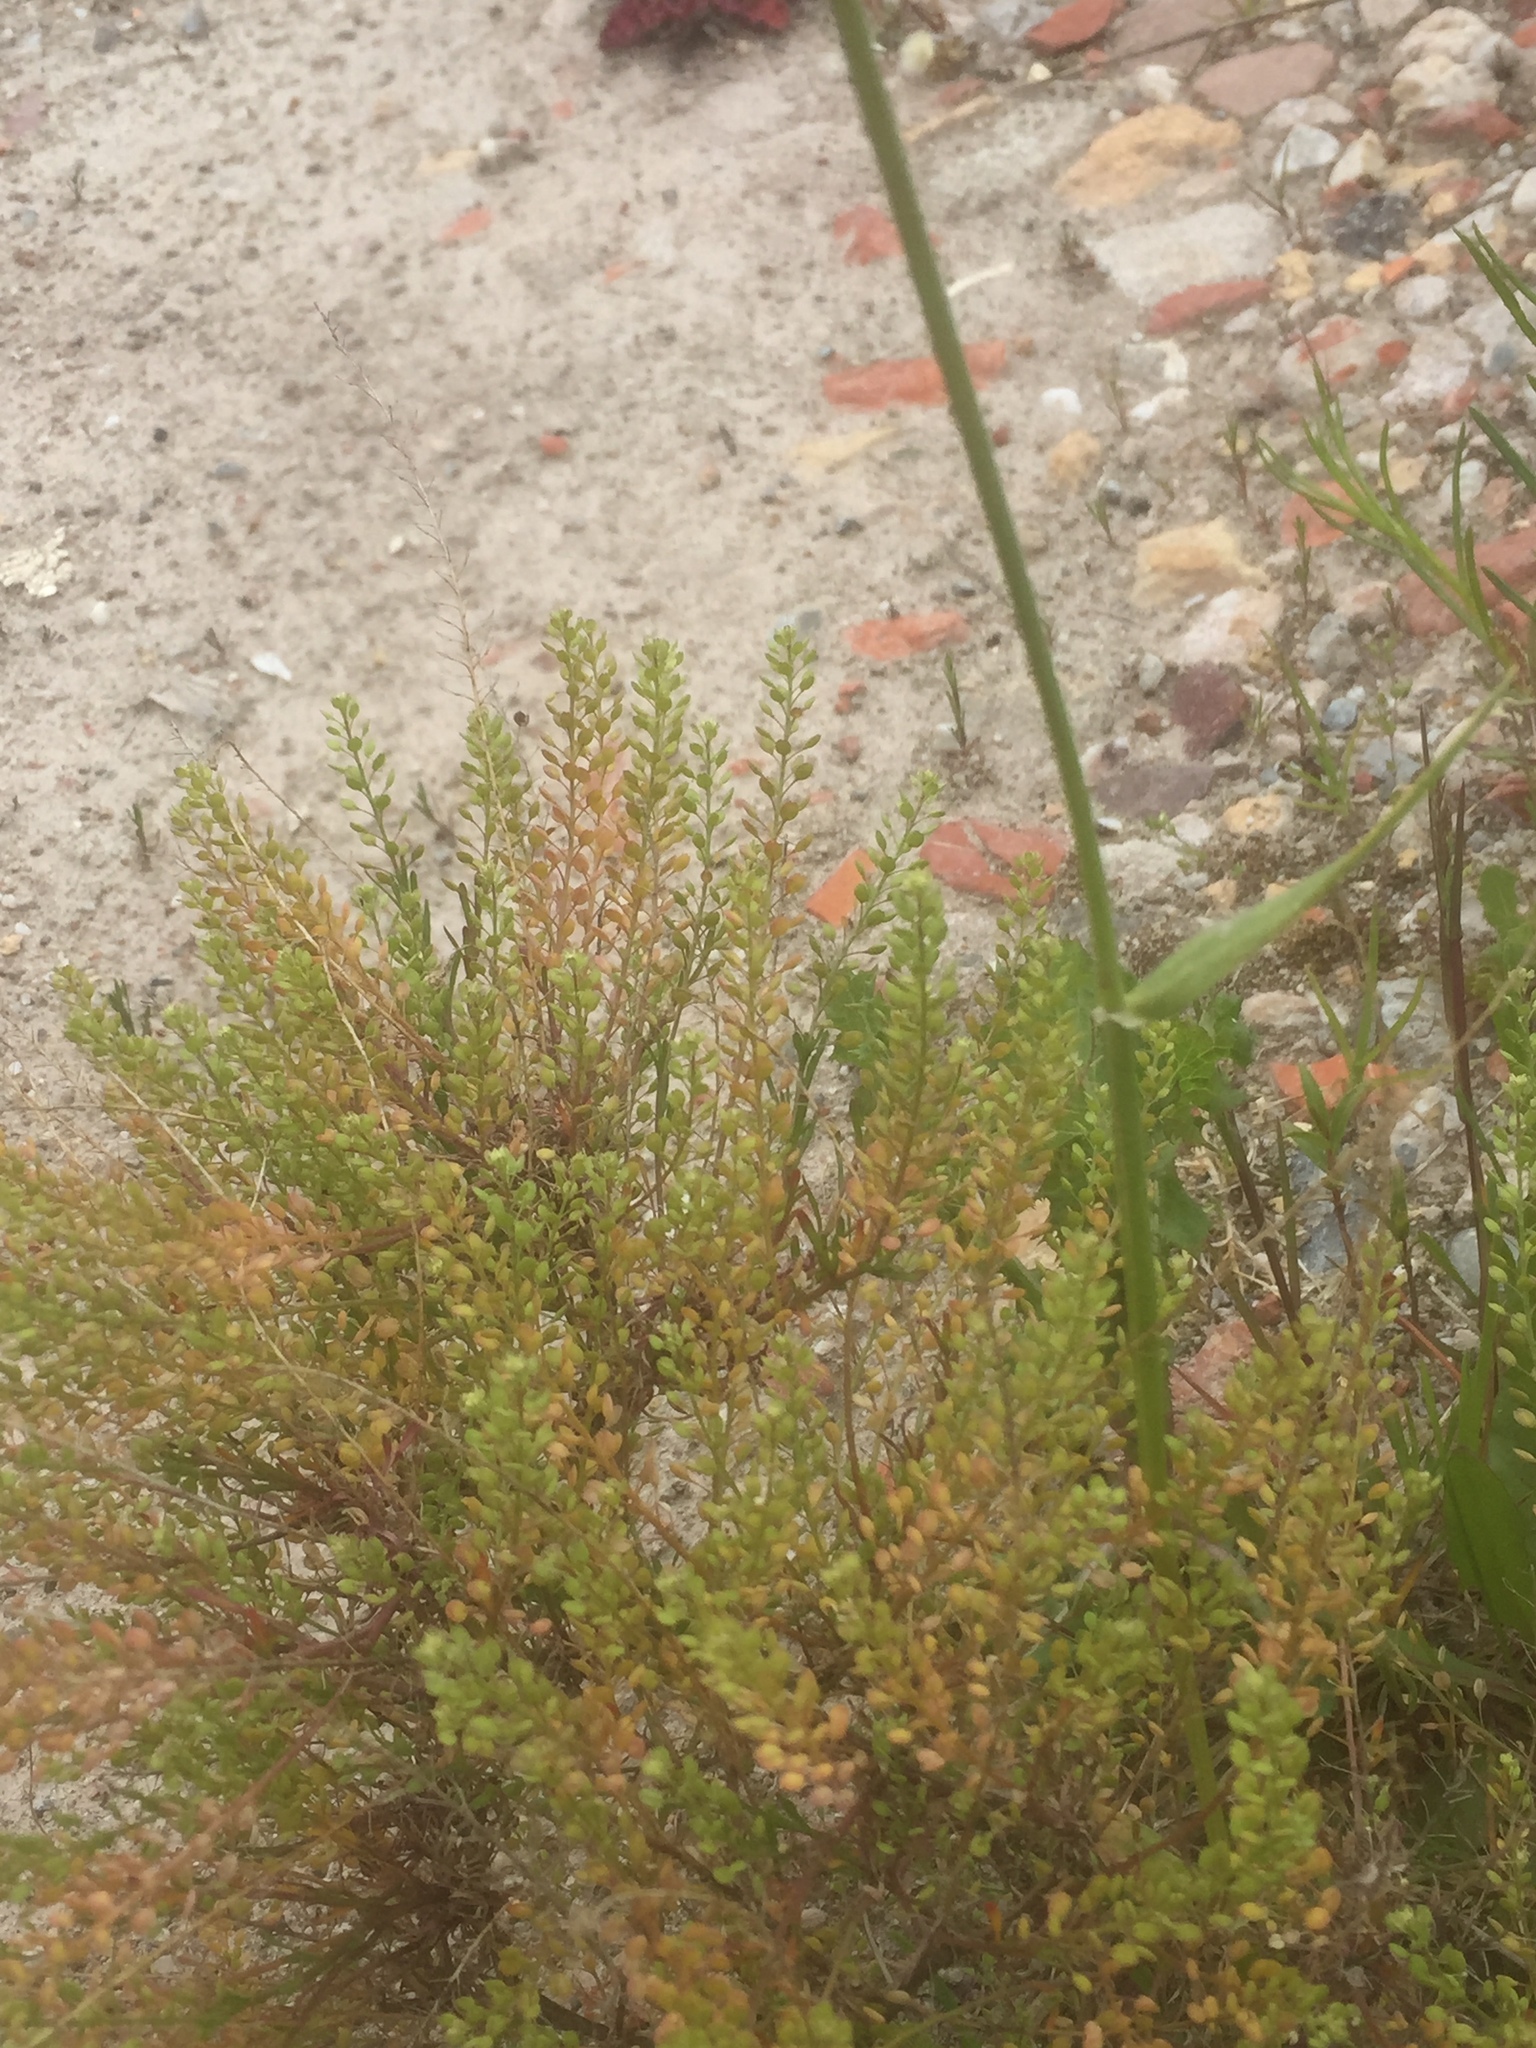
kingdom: Plantae
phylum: Tracheophyta
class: Magnoliopsida
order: Brassicales
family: Brassicaceae
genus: Lepidium
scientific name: Lepidium ruderale
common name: Narrow-leaved pepperwort
